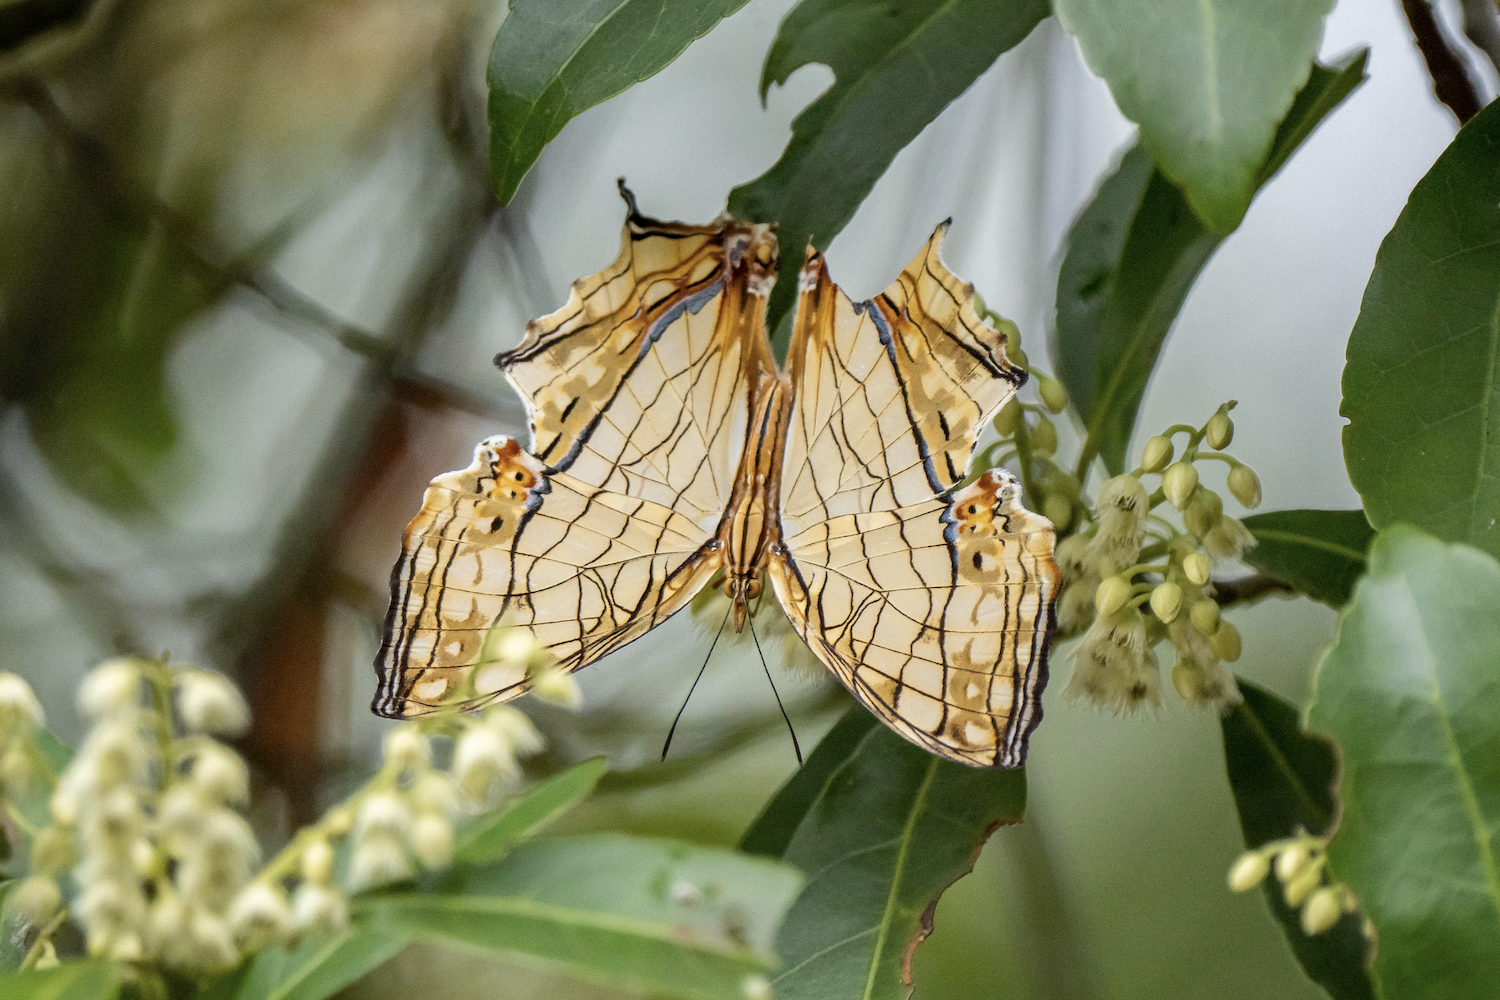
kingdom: Animalia
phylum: Arthropoda
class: Insecta
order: Lepidoptera
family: Nymphalidae
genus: Cyrestis
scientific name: Cyrestis thyodamas
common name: Common mapwing
